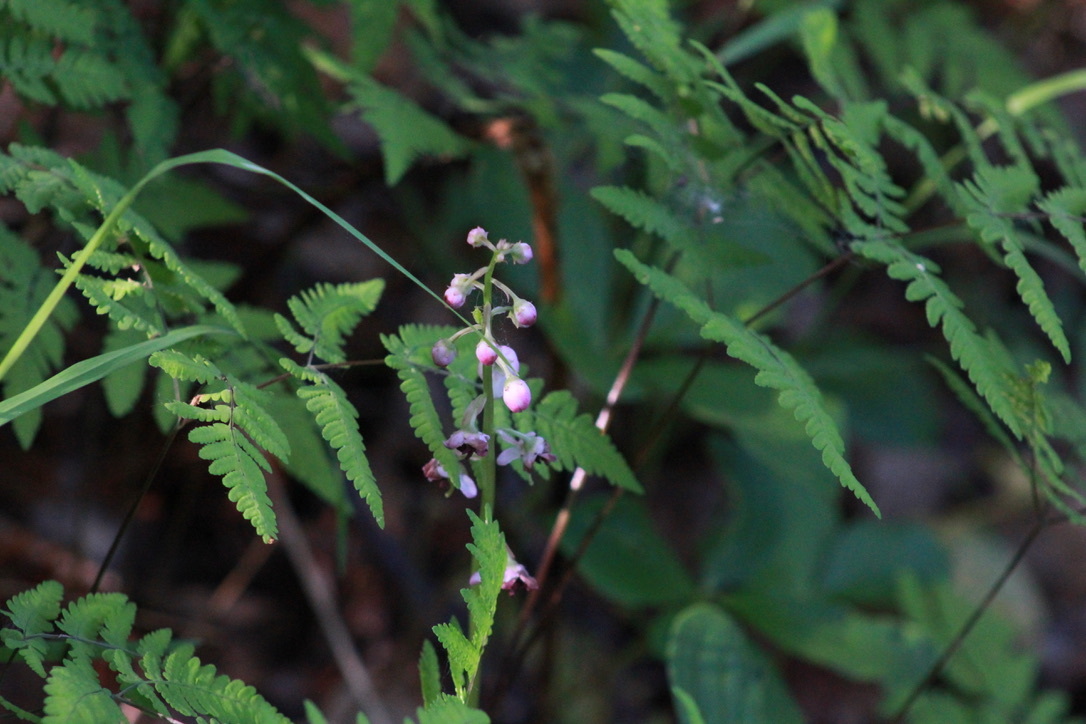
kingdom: Plantae
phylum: Tracheophyta
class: Magnoliopsida
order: Ericales
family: Ericaceae
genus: Pyrola
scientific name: Pyrola asarifolia
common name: Bog wintergreen
